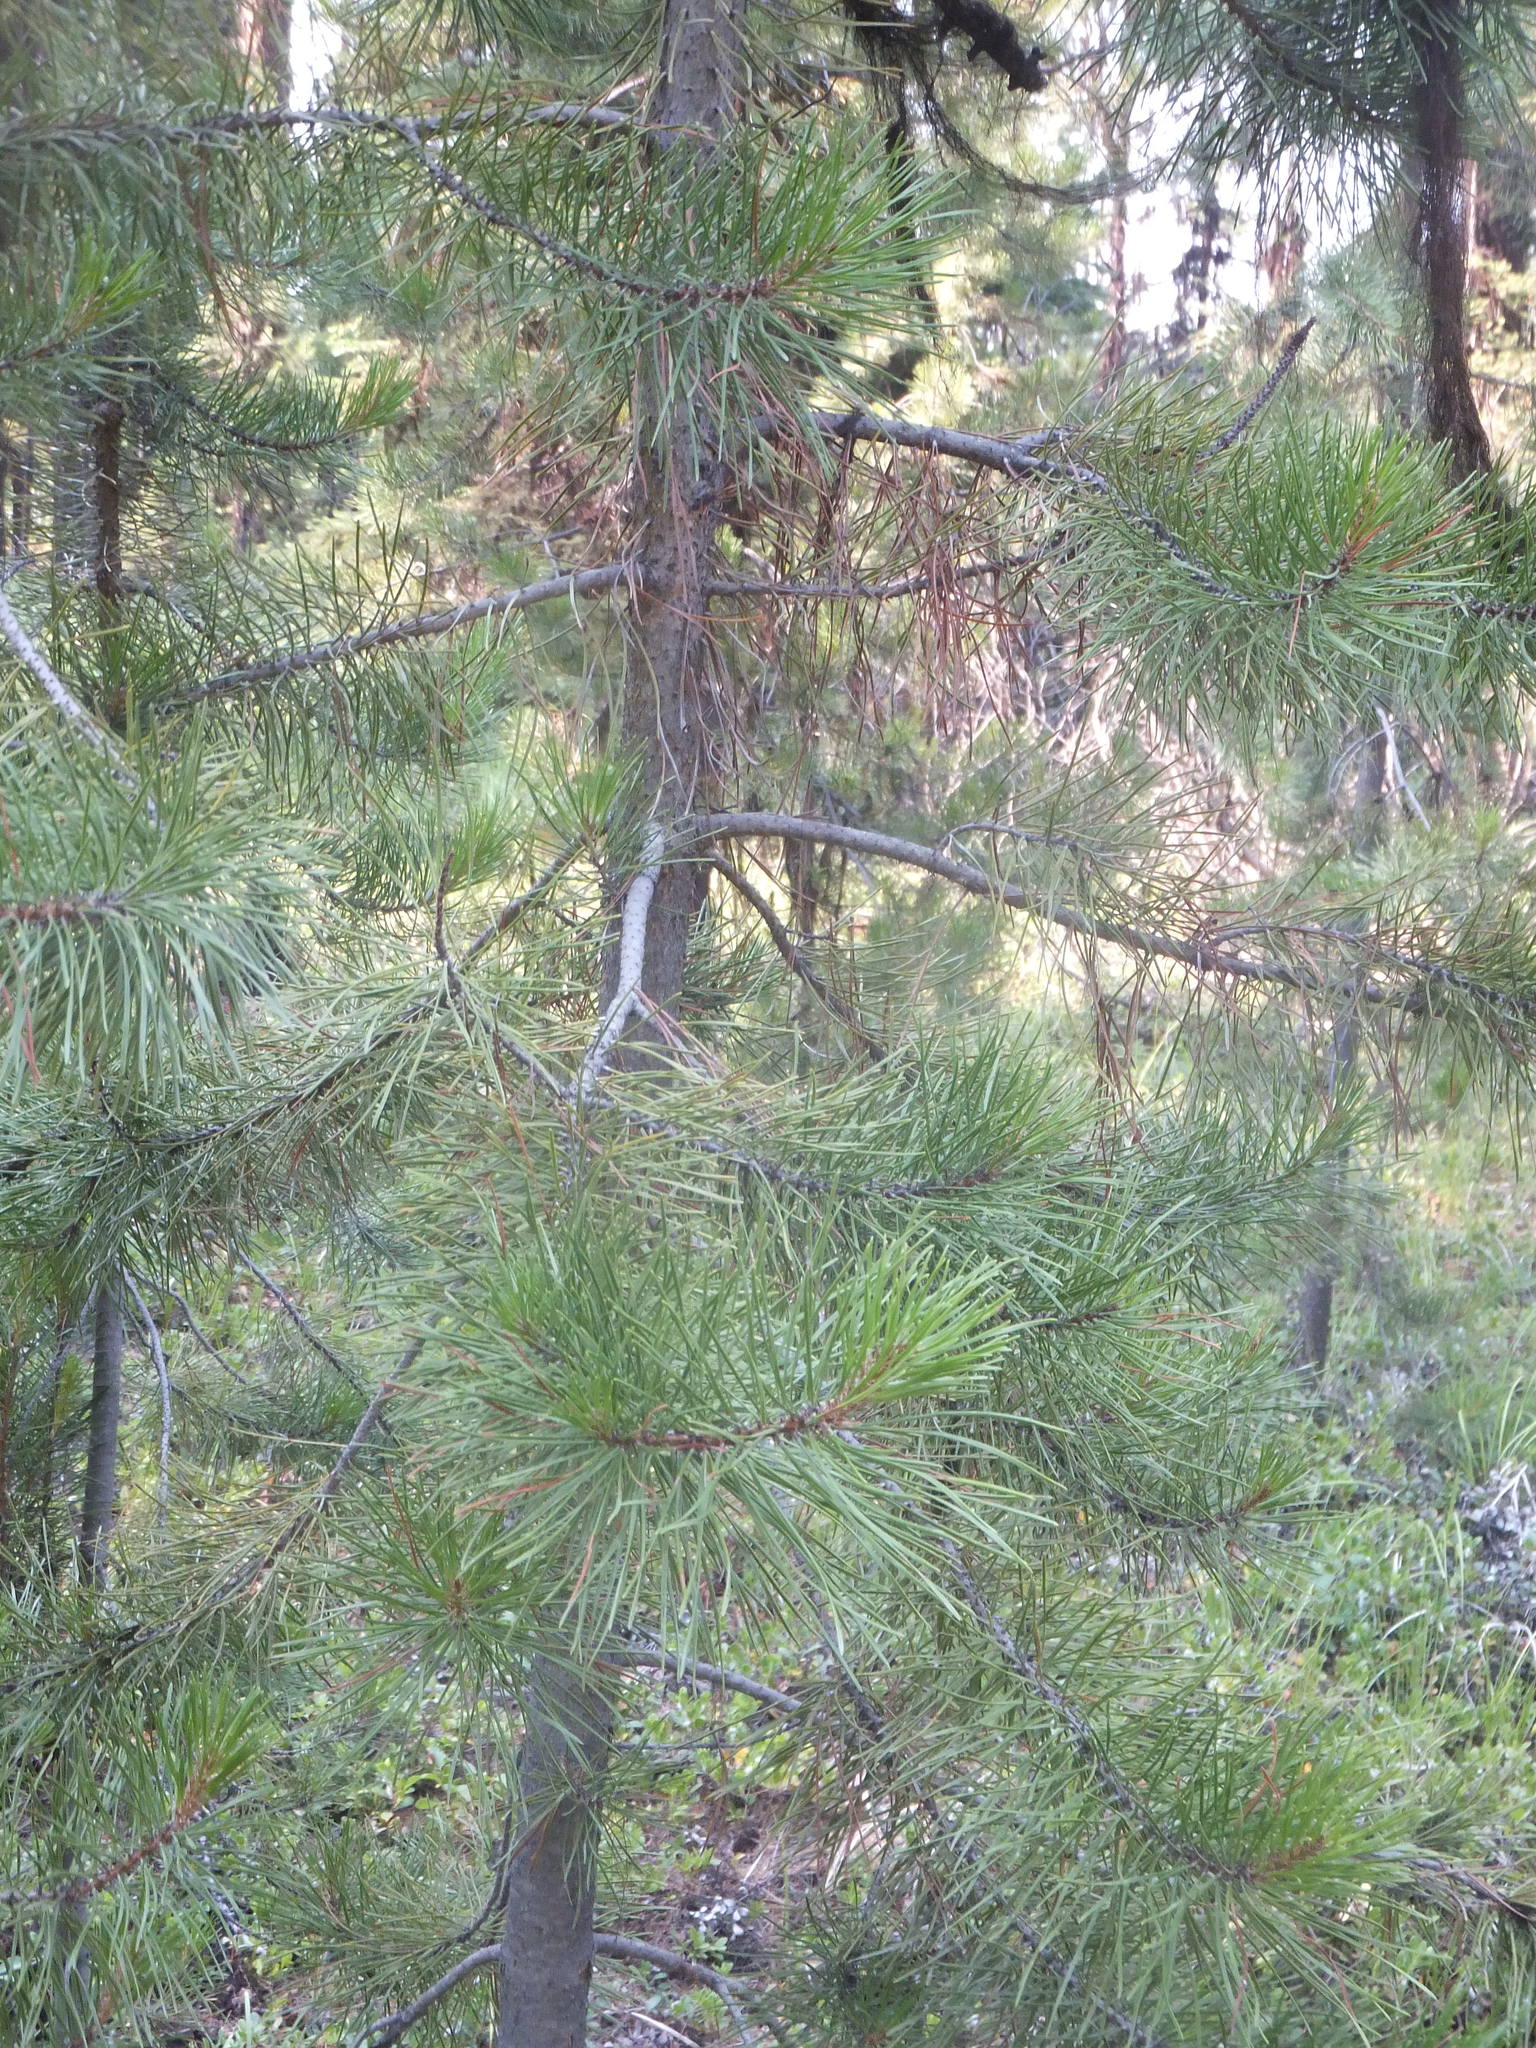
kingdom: Plantae
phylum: Tracheophyta
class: Pinopsida
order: Pinales
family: Pinaceae
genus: Pinus
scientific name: Pinus contorta
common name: Lodgepole pine
